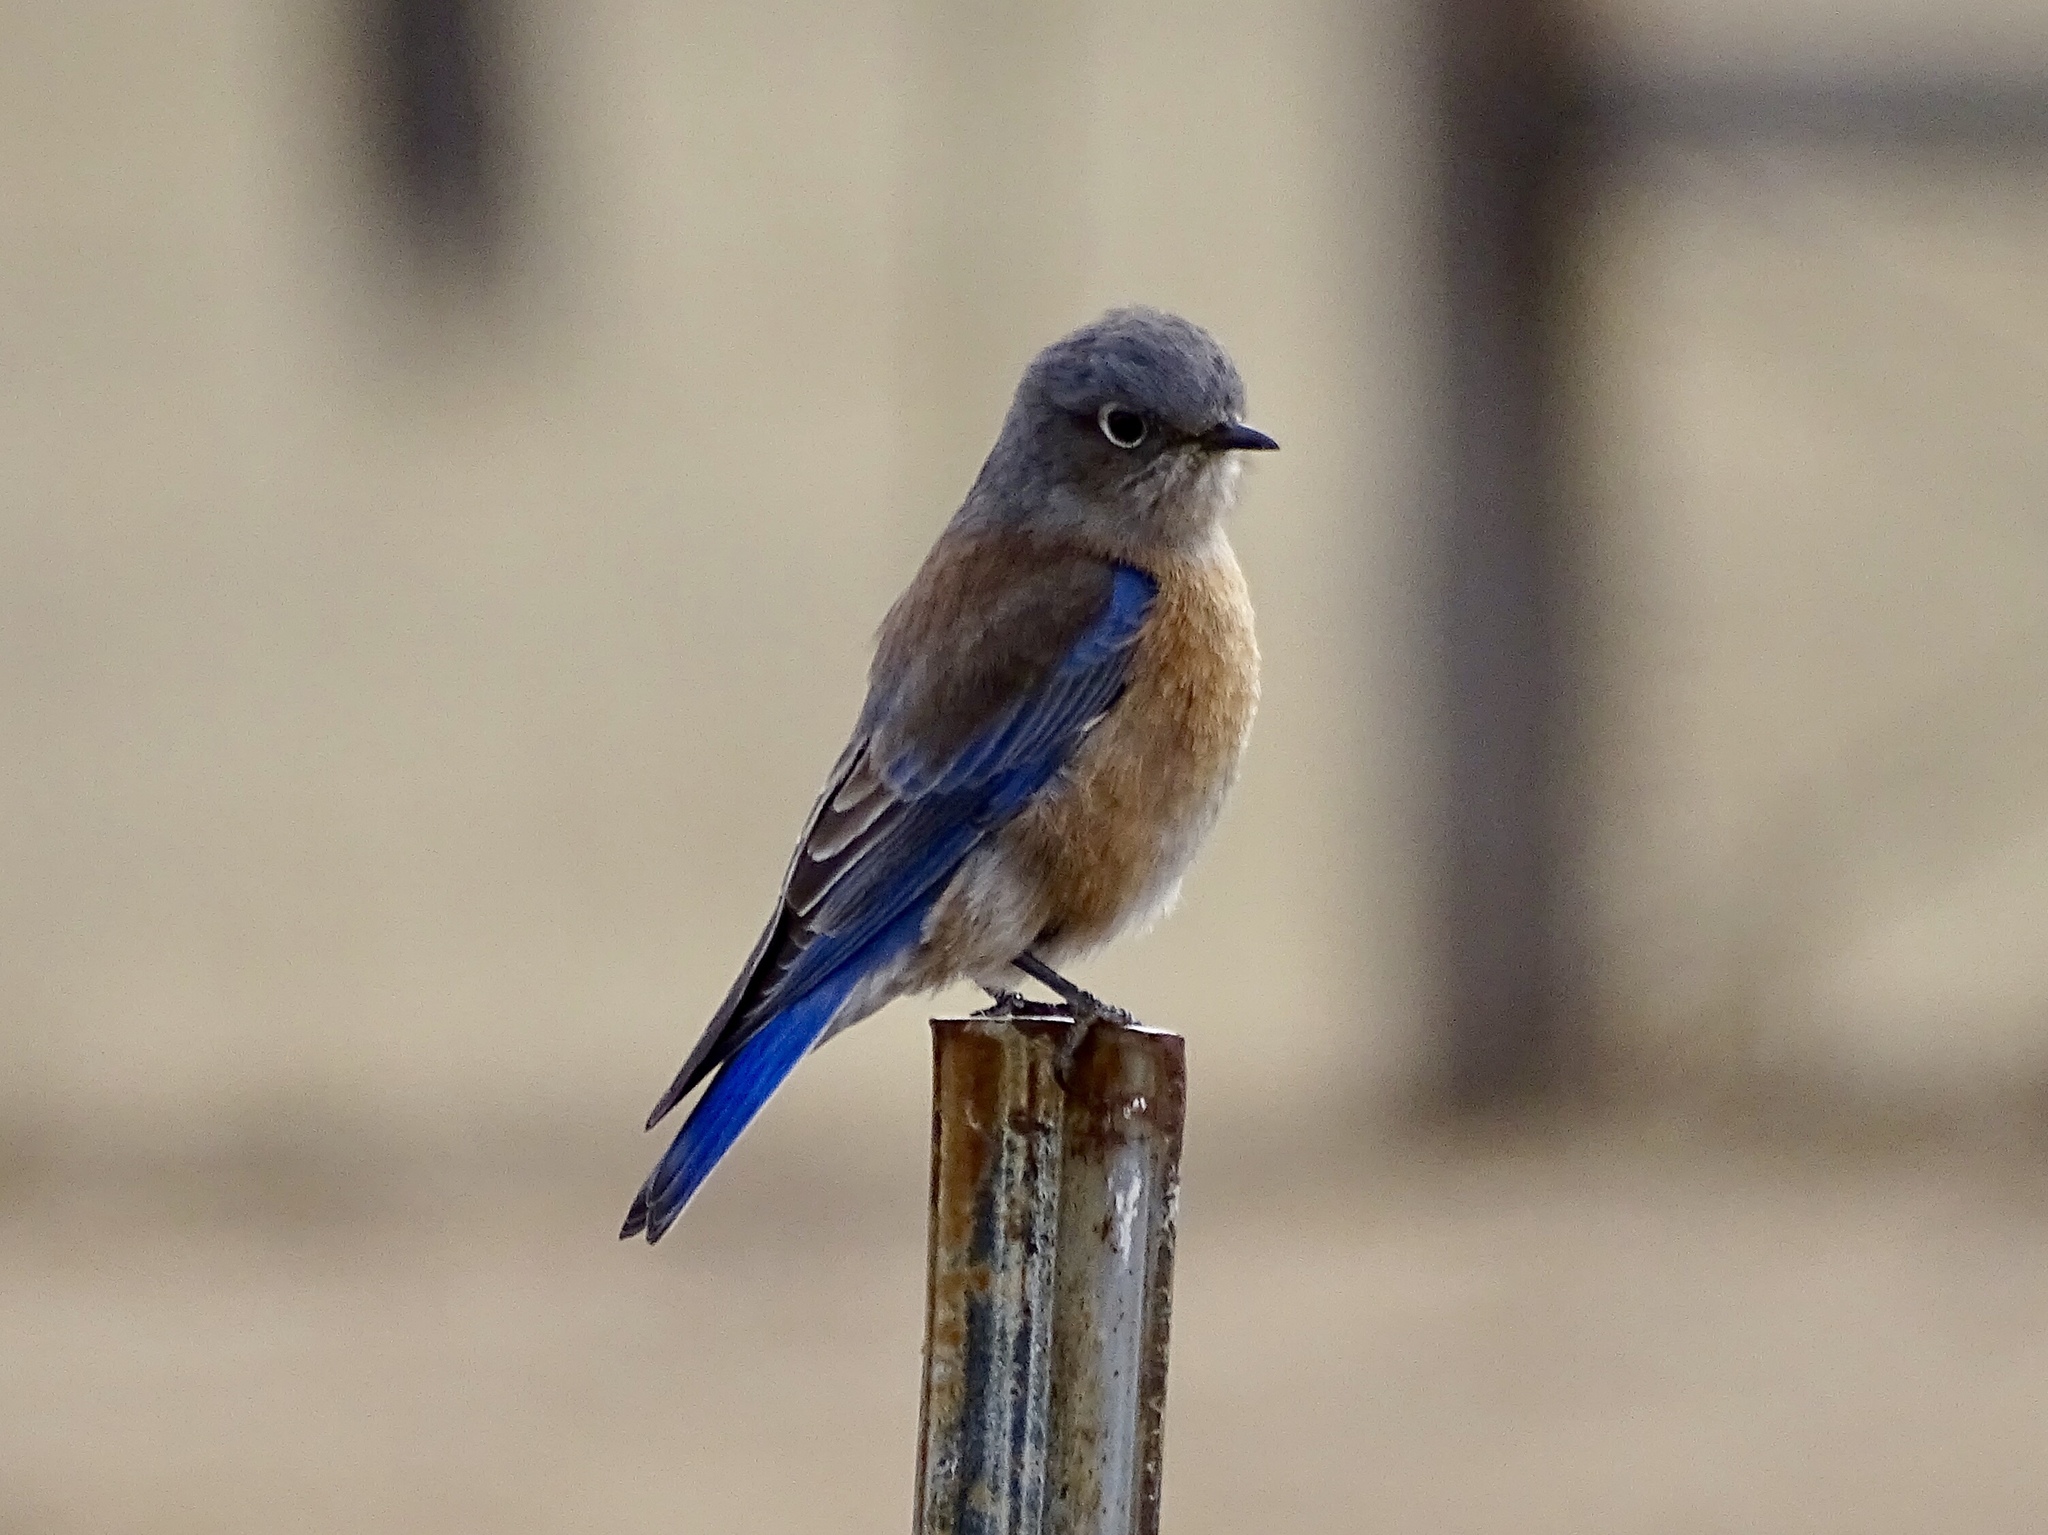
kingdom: Animalia
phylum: Chordata
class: Aves
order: Passeriformes
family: Turdidae
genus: Sialia
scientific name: Sialia mexicana
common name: Western bluebird
